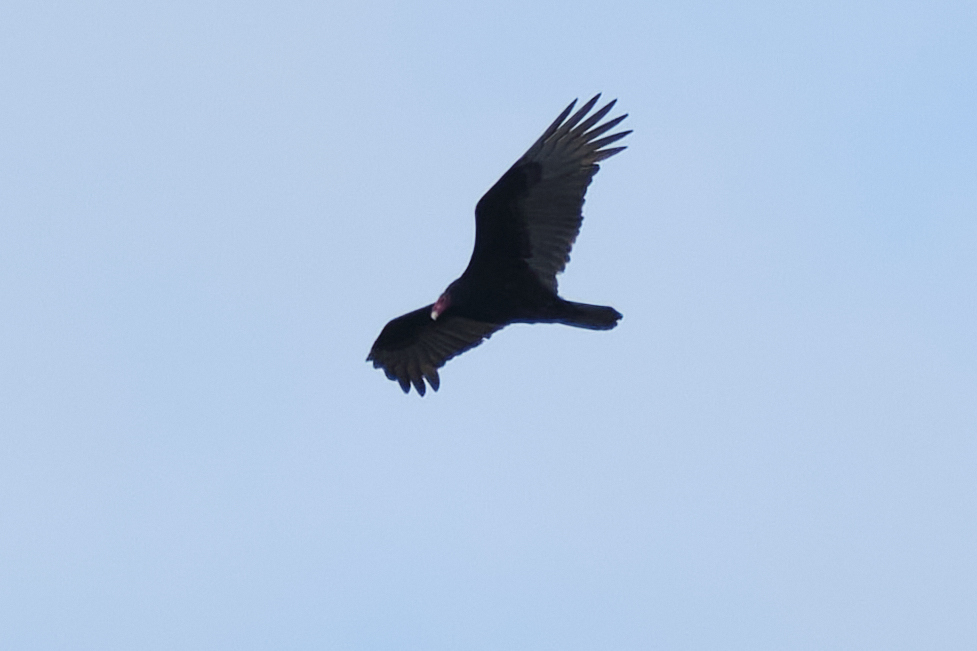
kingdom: Animalia
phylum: Chordata
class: Aves
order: Accipitriformes
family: Cathartidae
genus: Cathartes
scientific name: Cathartes aura
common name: Turkey vulture
